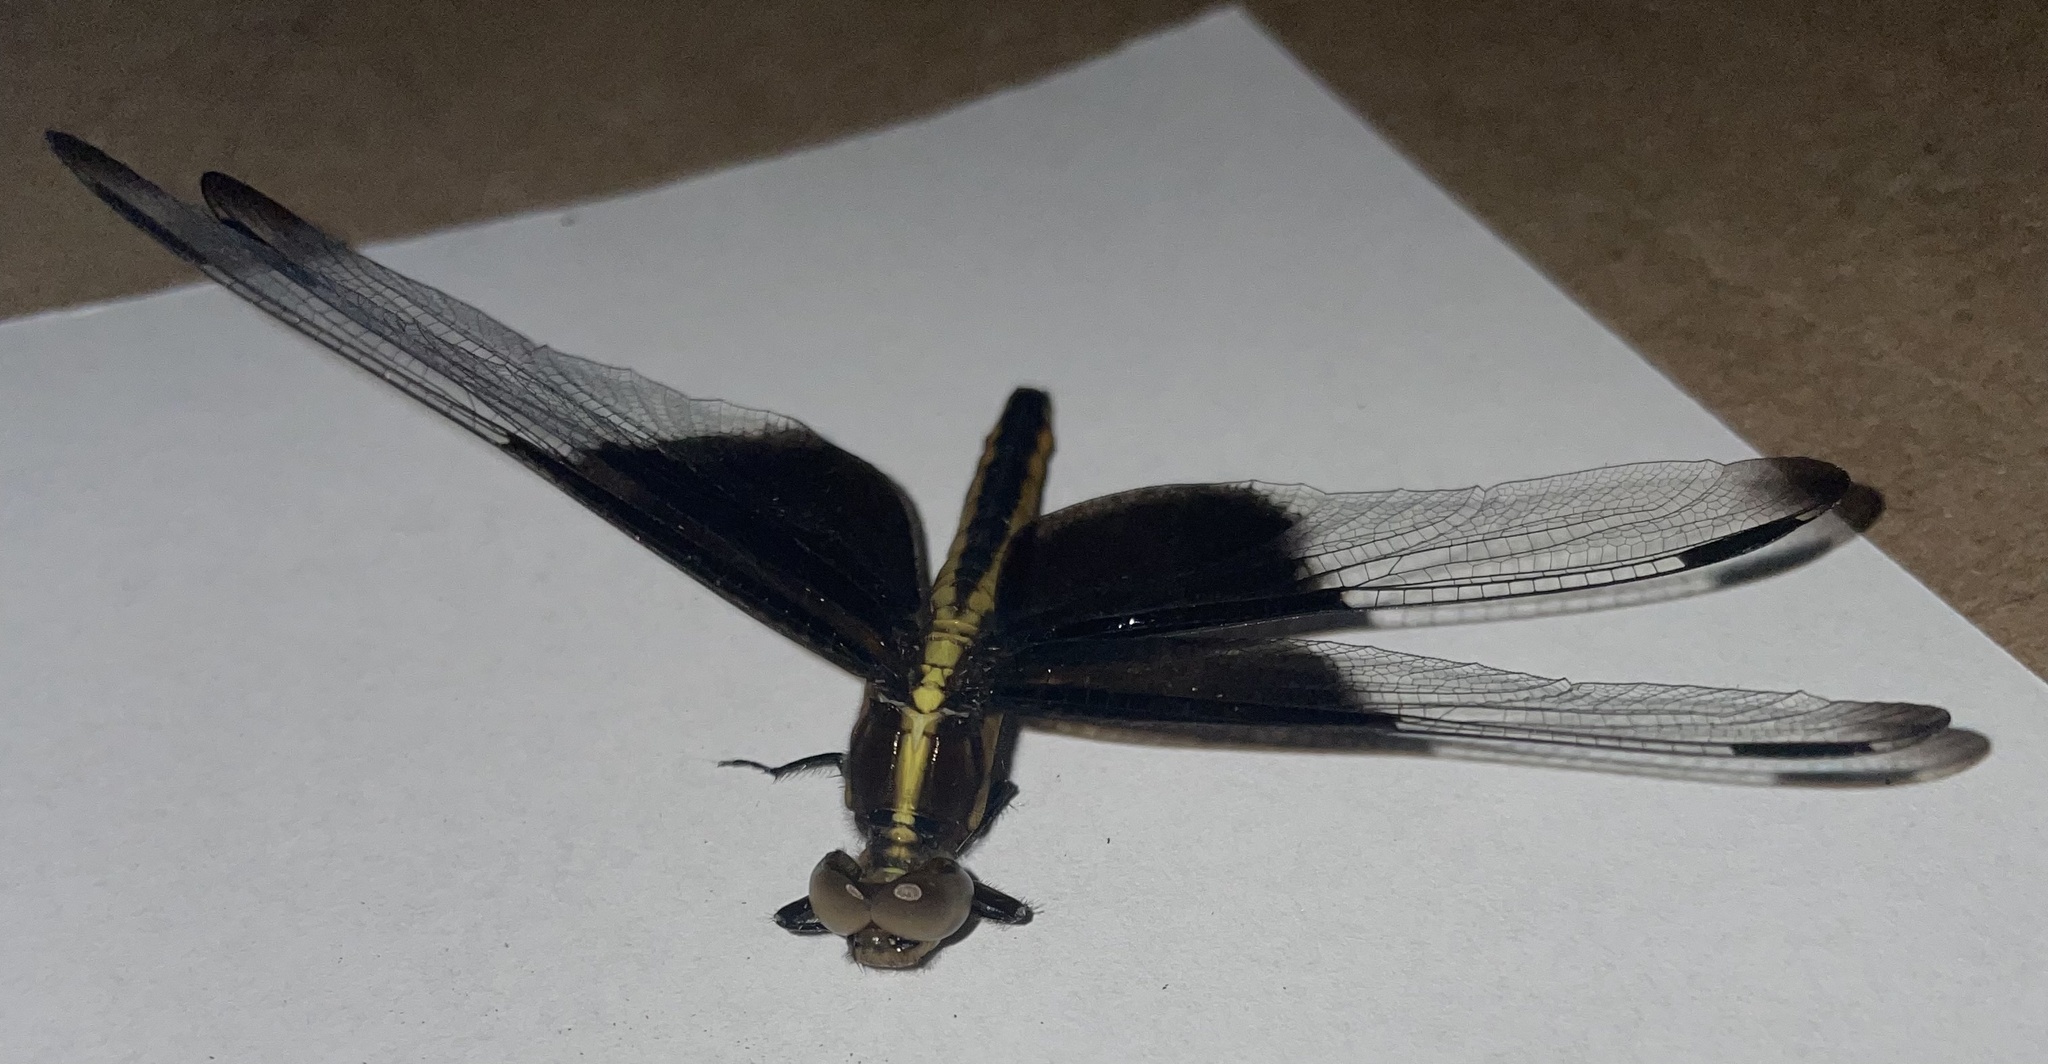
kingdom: Animalia
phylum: Arthropoda
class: Insecta
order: Odonata
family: Libellulidae
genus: Libellula
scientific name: Libellula luctuosa
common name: Widow skimmer
